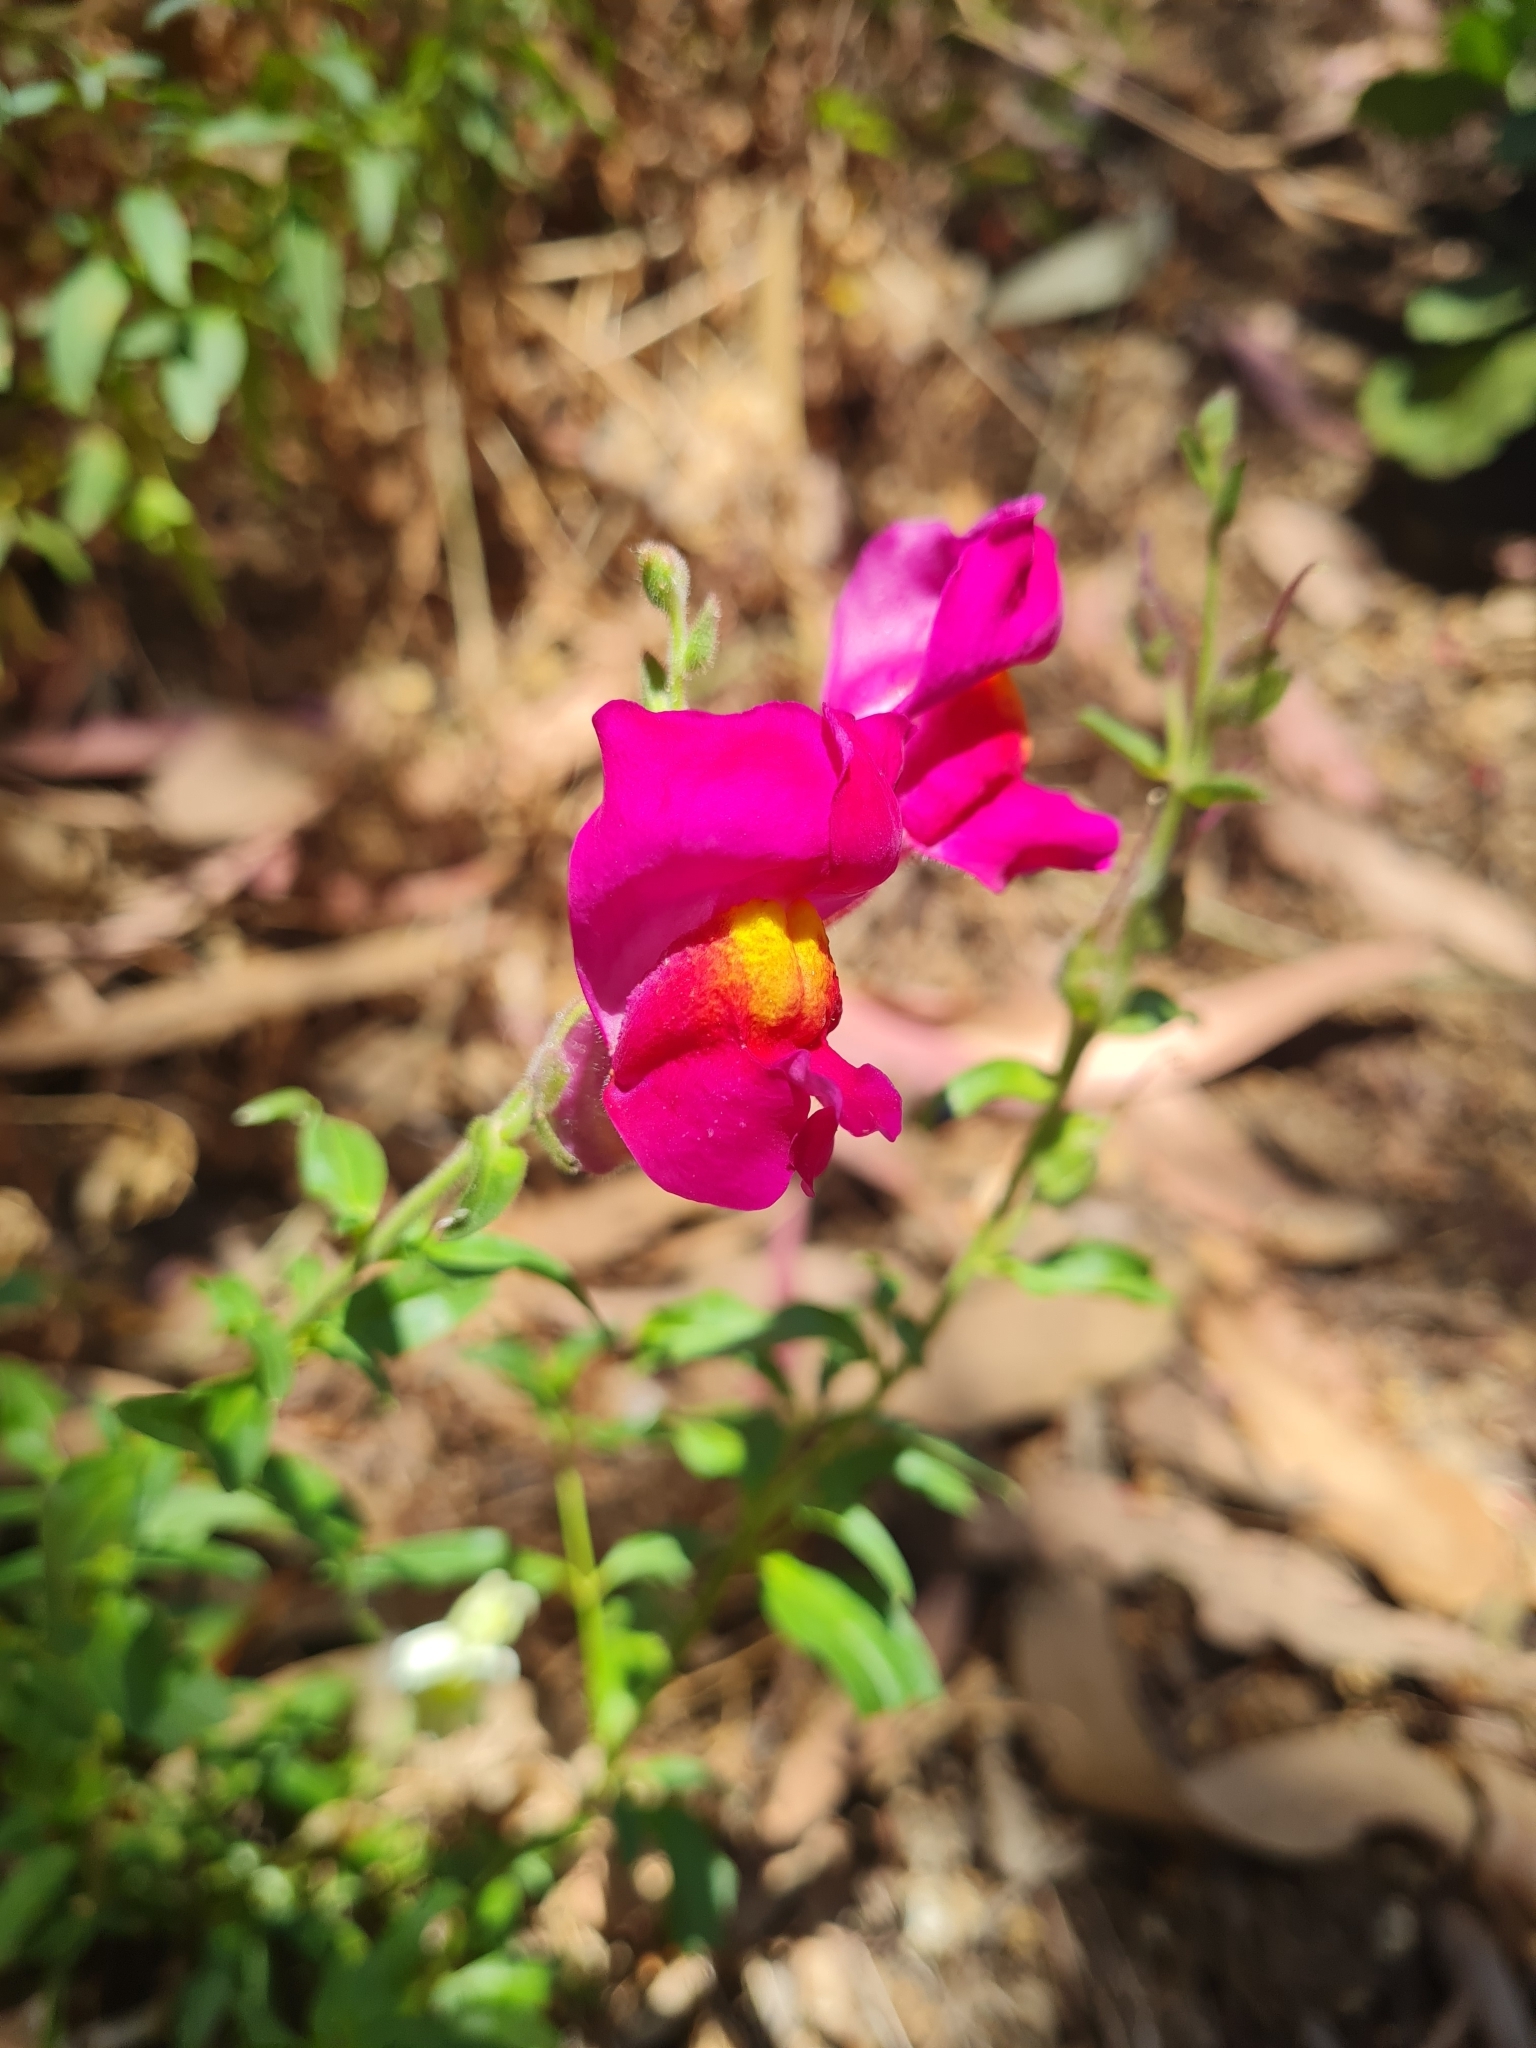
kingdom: Plantae
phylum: Tracheophyta
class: Magnoliopsida
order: Lamiales
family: Plantaginaceae
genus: Antirrhinum
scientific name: Antirrhinum majus
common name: Snapdragon
